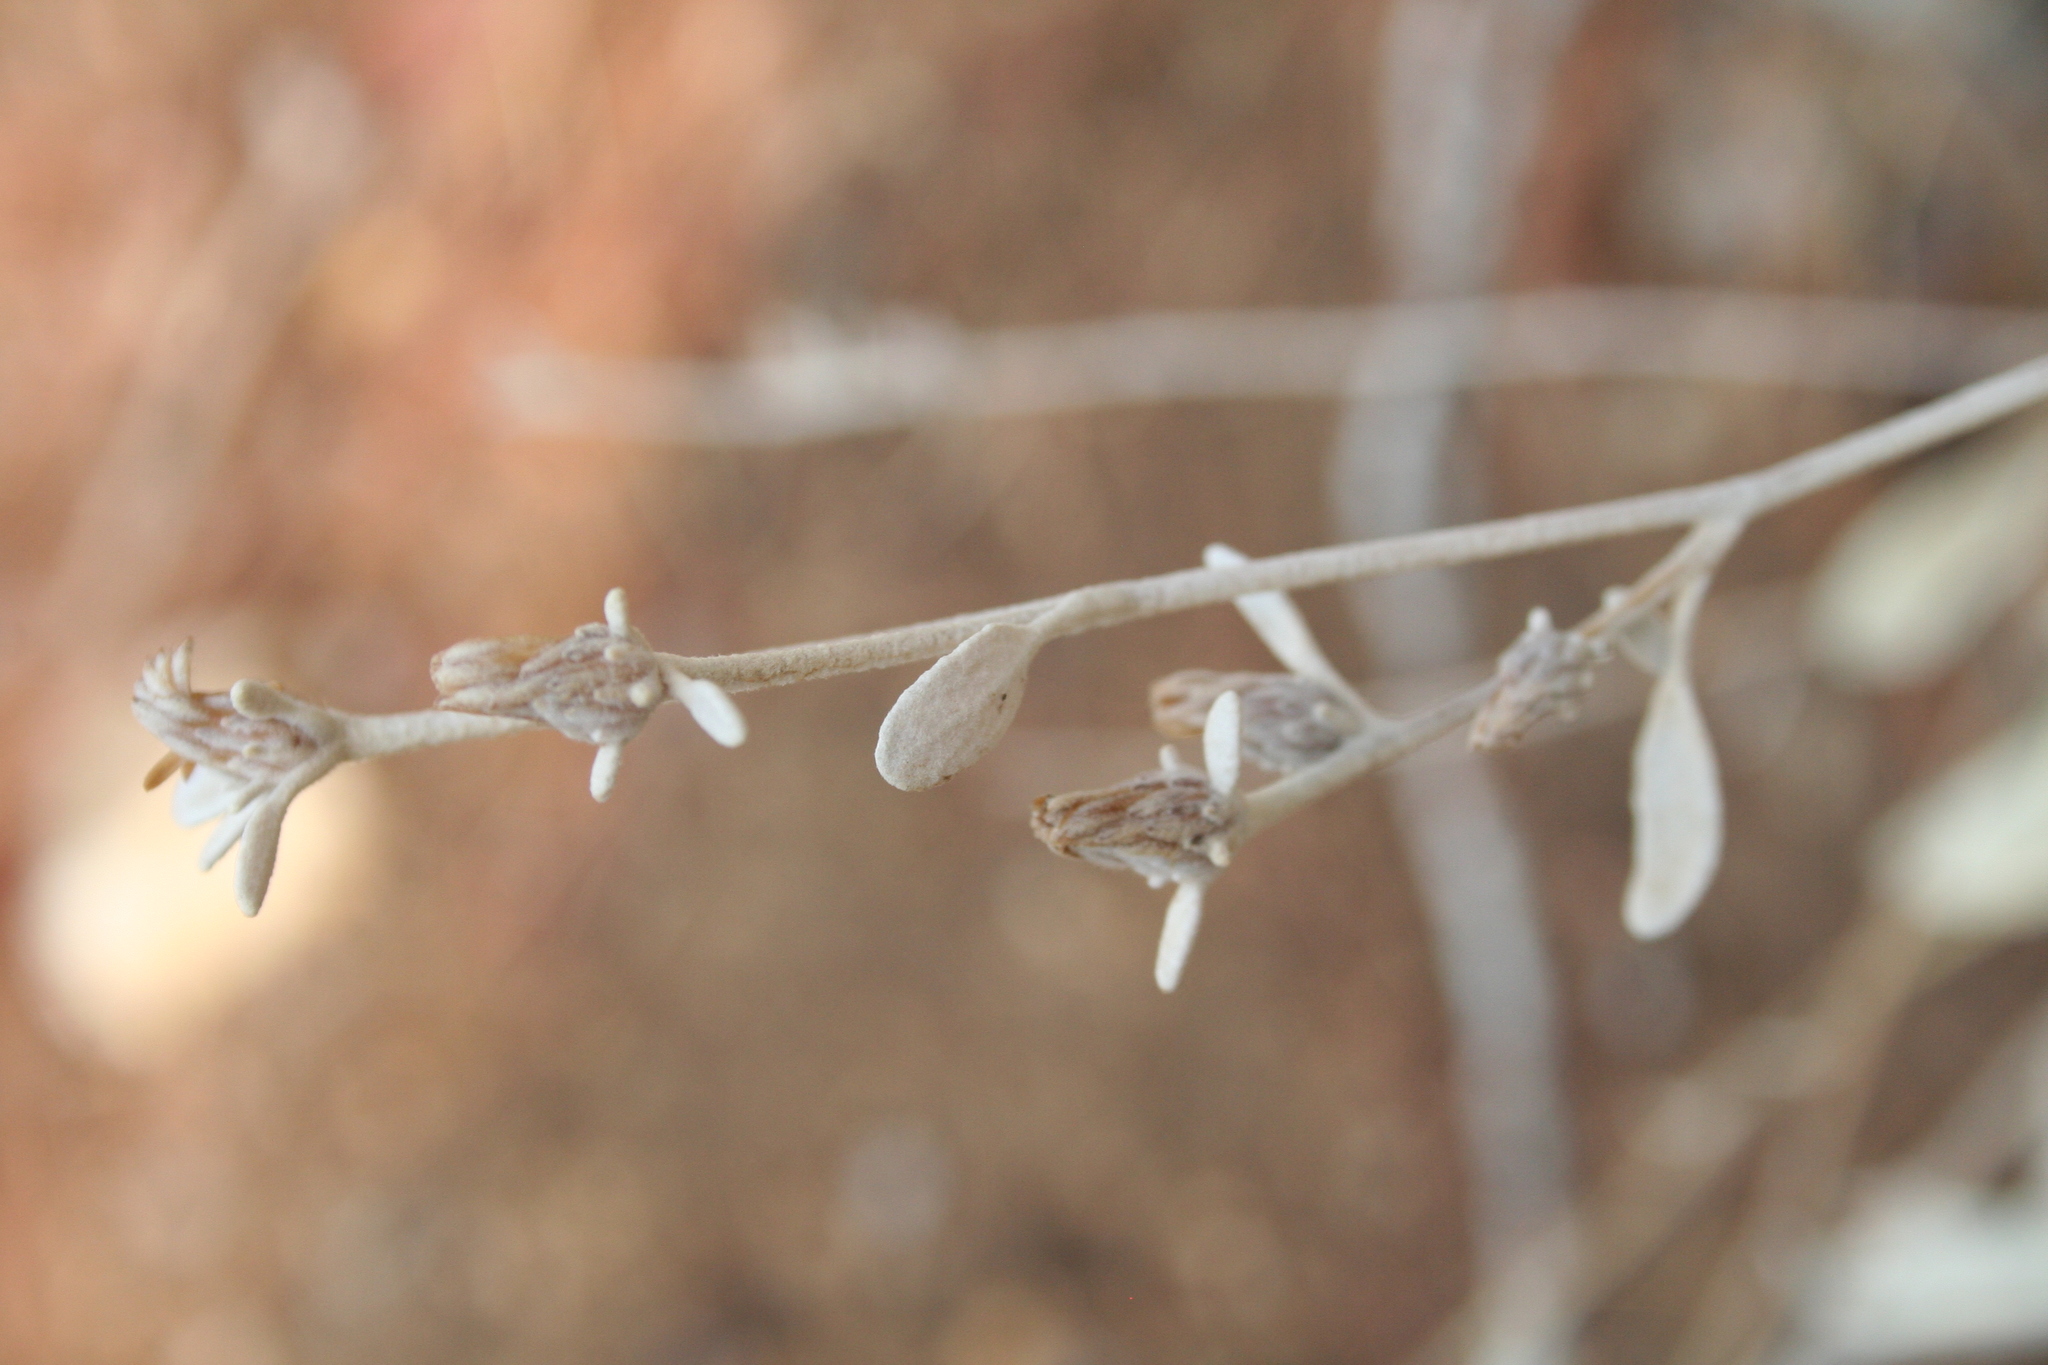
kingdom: Plantae
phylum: Tracheophyta
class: Magnoliopsida
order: Asterales
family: Asteraceae
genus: Pentanema
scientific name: Pentanema verbascifolium
